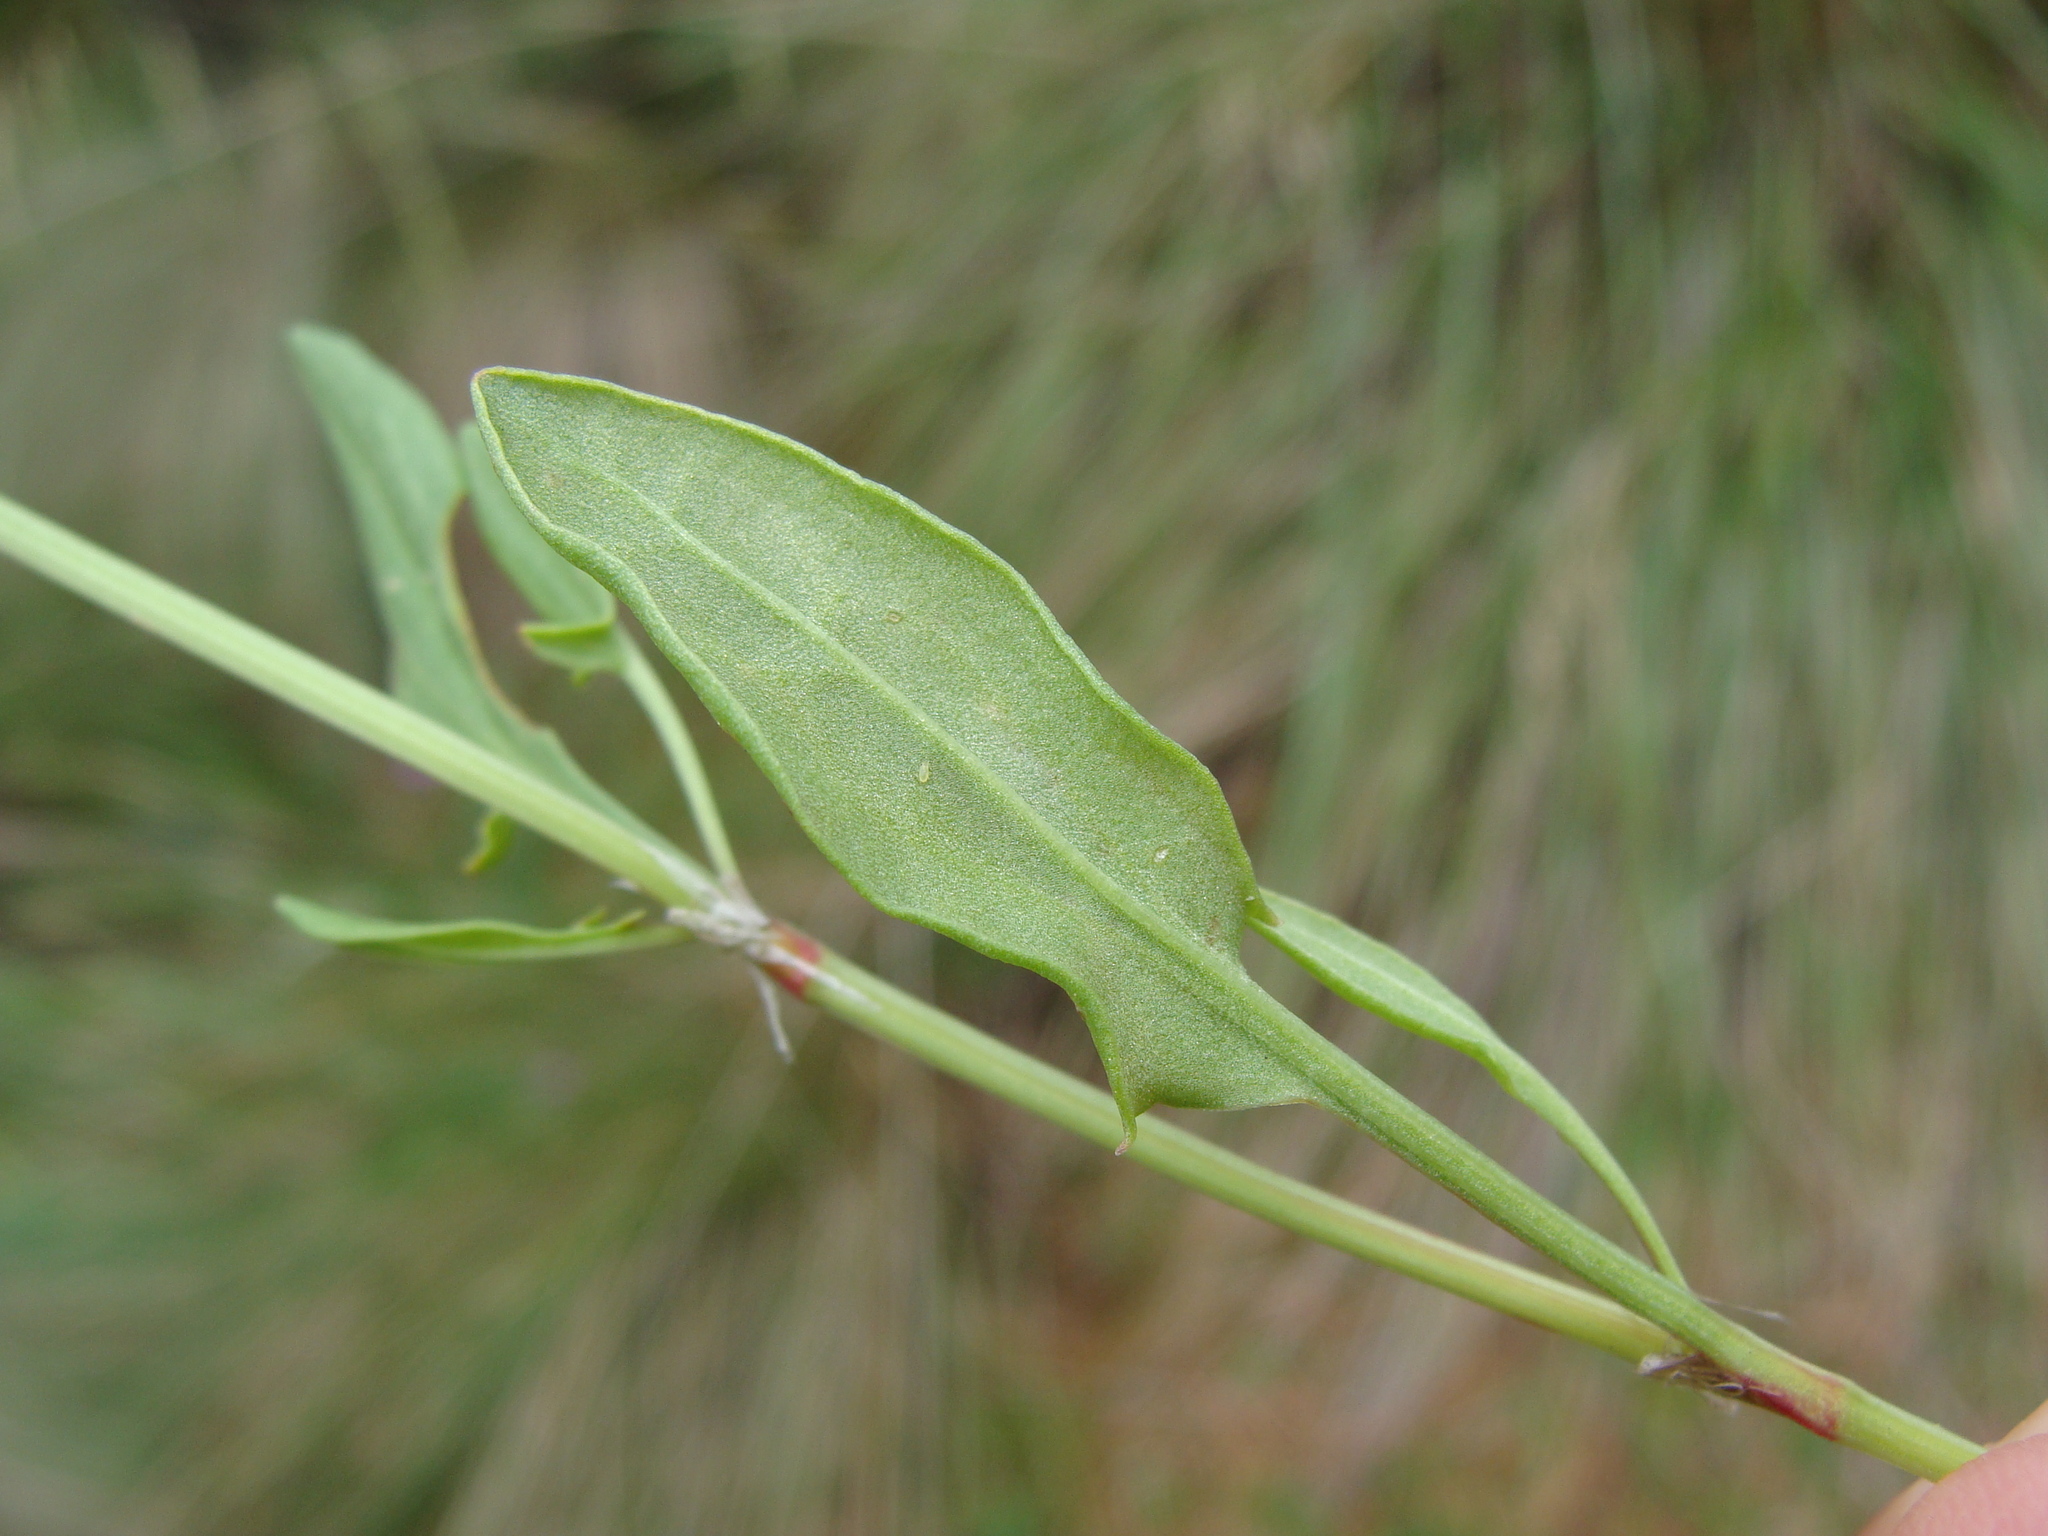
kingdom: Plantae
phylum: Tracheophyta
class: Magnoliopsida
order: Asterales
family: Asteraceae
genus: Astranthium
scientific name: Astranthium xanthocomoides
